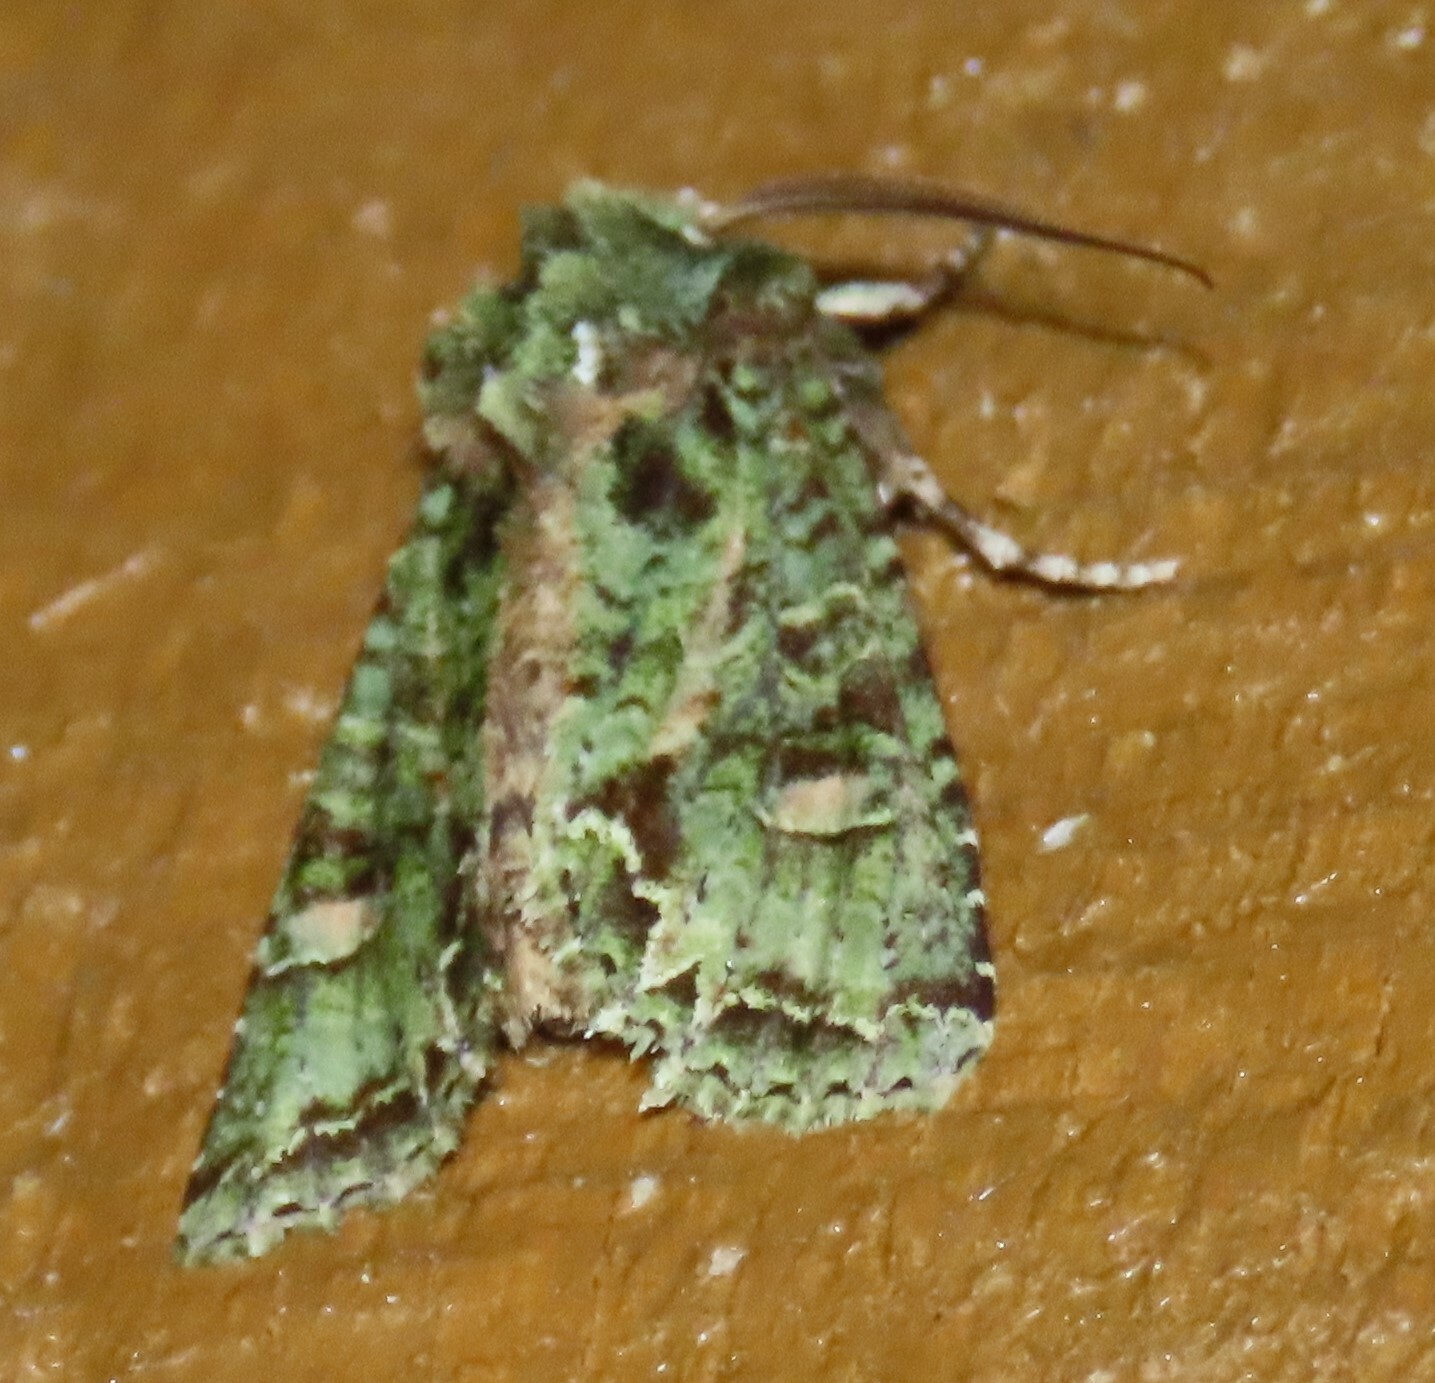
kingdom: Animalia
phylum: Arthropoda
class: Insecta
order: Lepidoptera
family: Noctuidae
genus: Ichneutica
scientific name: Ichneutica
